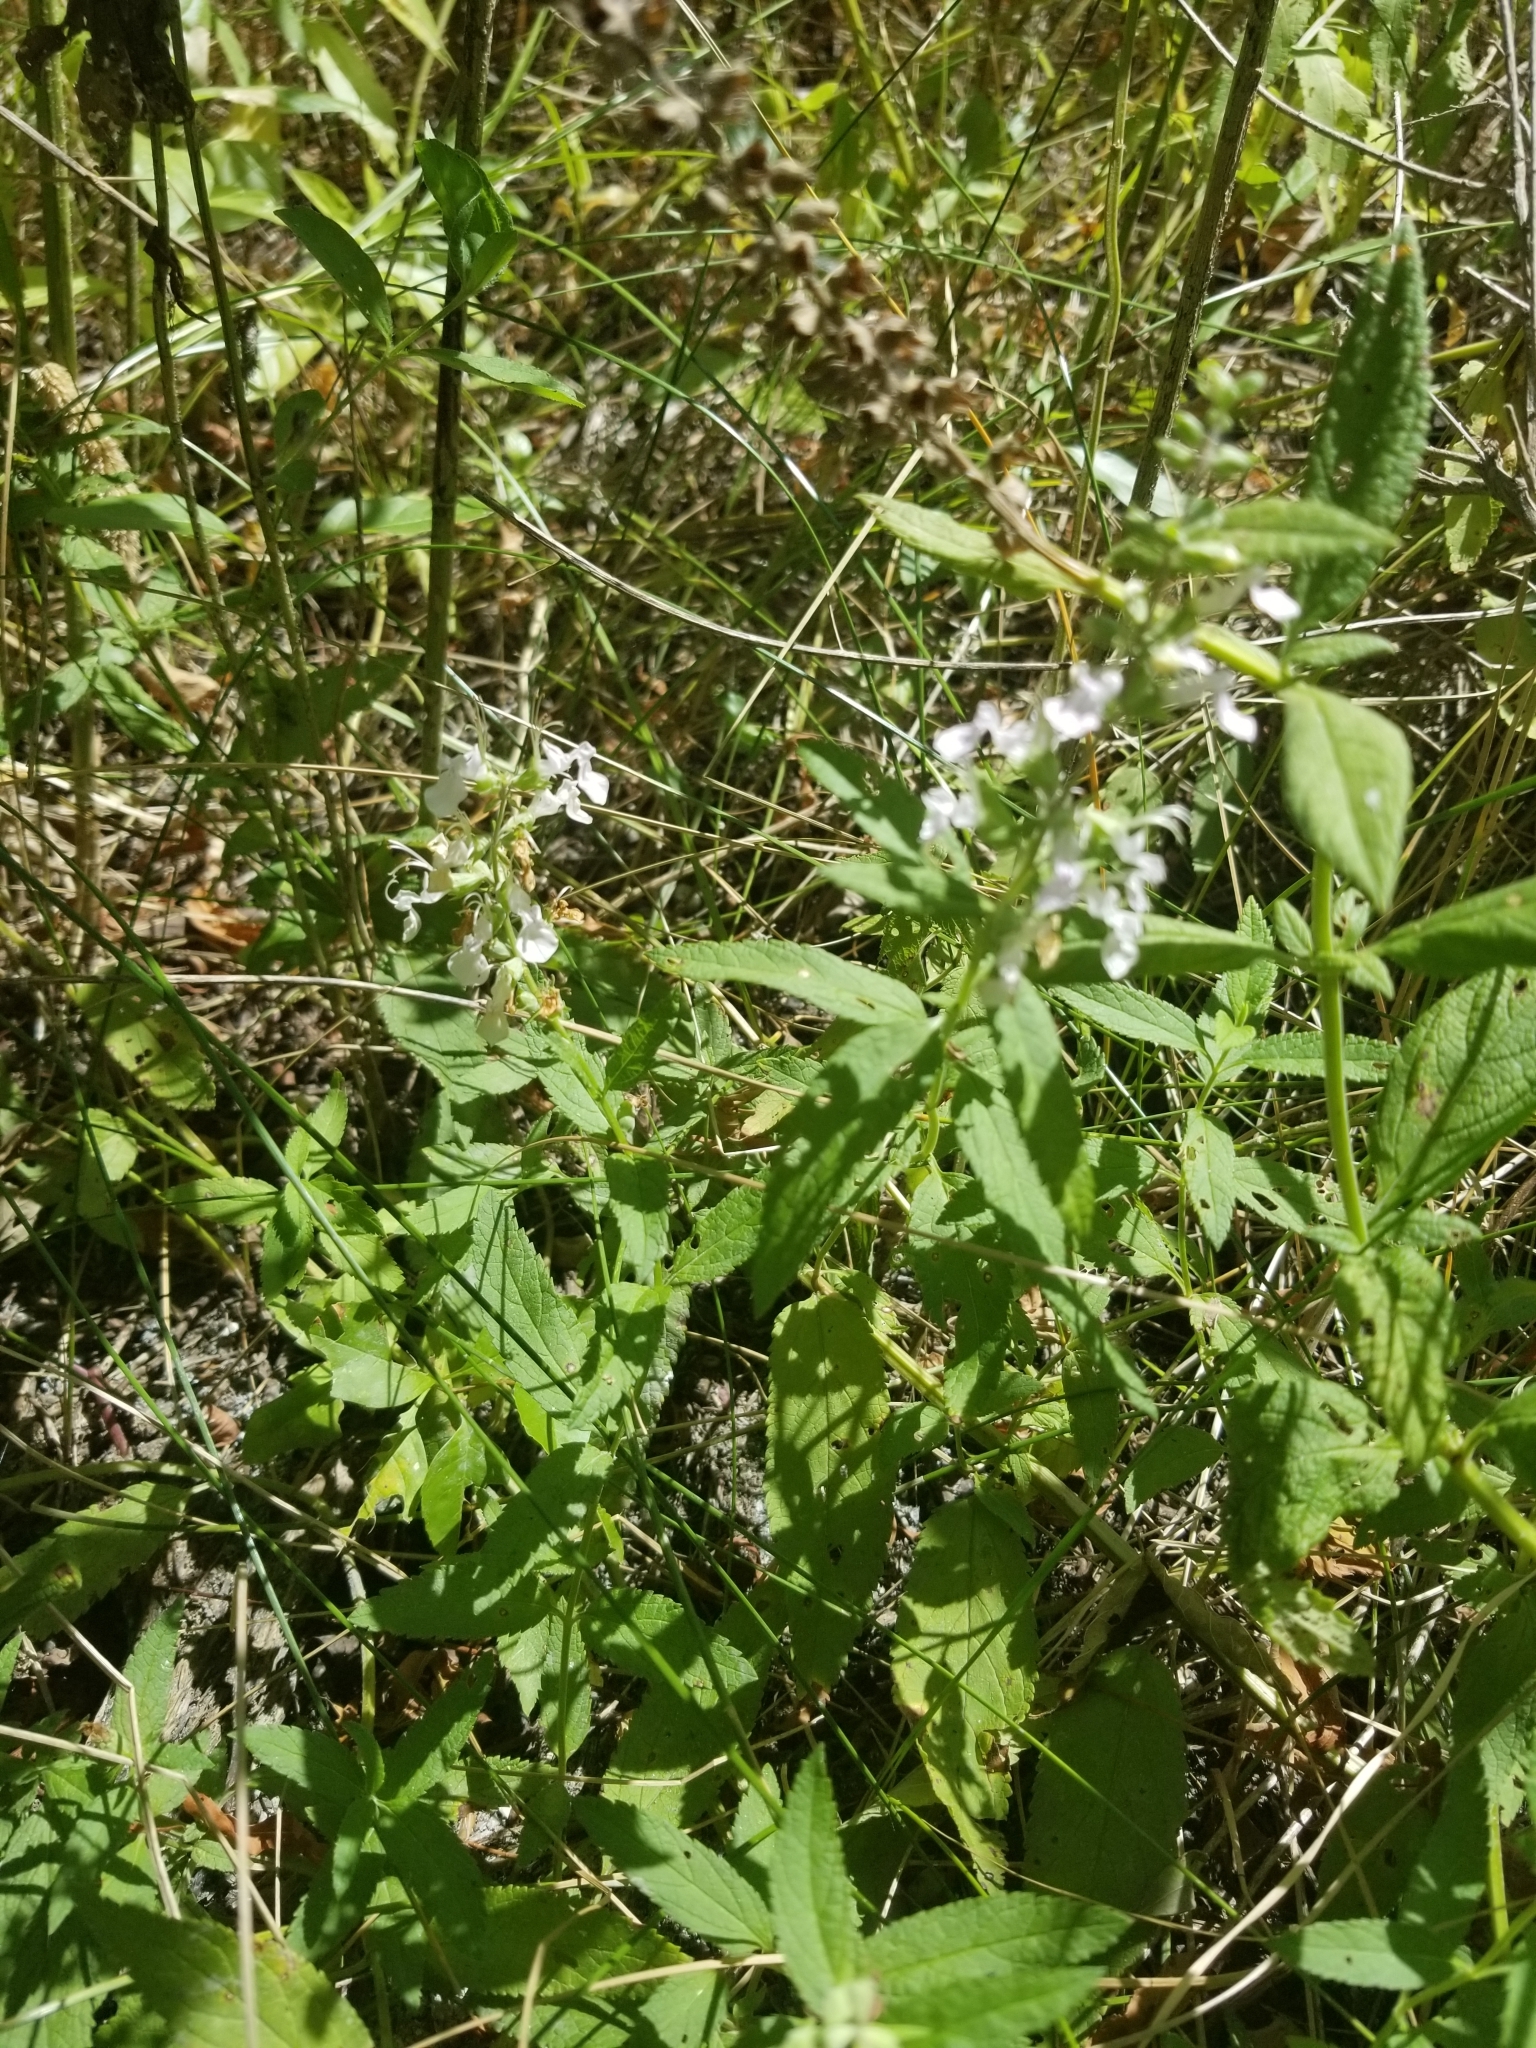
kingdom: Plantae
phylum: Tracheophyta
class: Magnoliopsida
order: Lamiales
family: Lamiaceae
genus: Teucrium
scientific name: Teucrium canadense
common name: American germander
